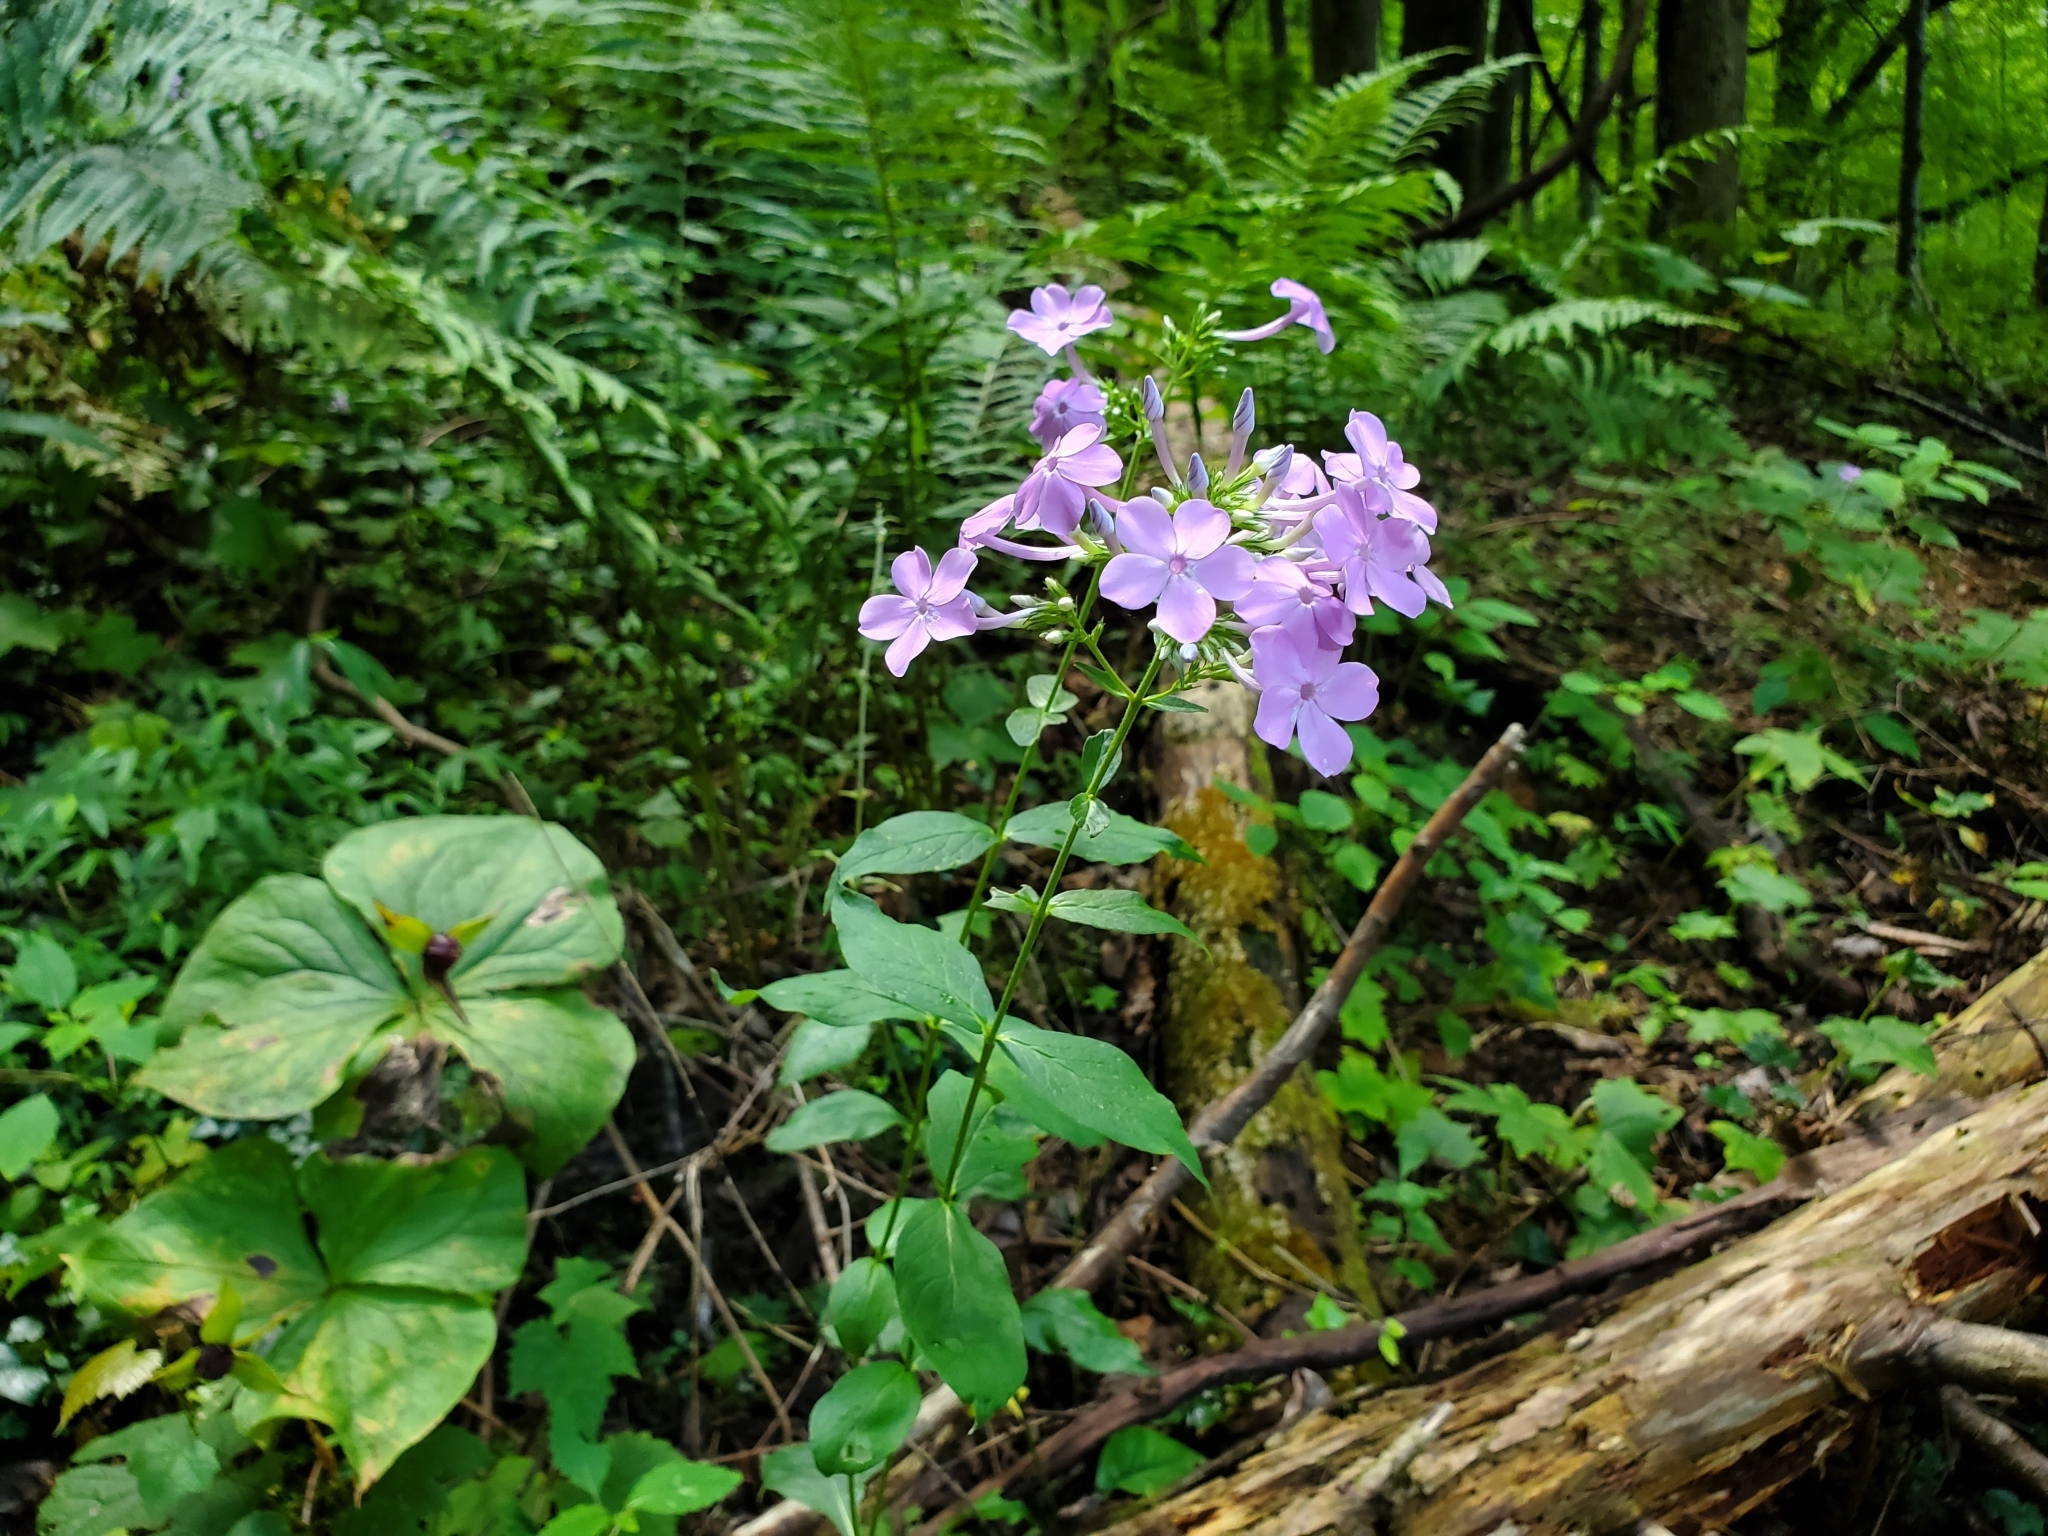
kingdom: Plantae
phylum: Tracheophyta
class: Magnoliopsida
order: Ericales
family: Polemoniaceae
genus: Phlox
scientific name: Phlox paniculata
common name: Fall phlox
